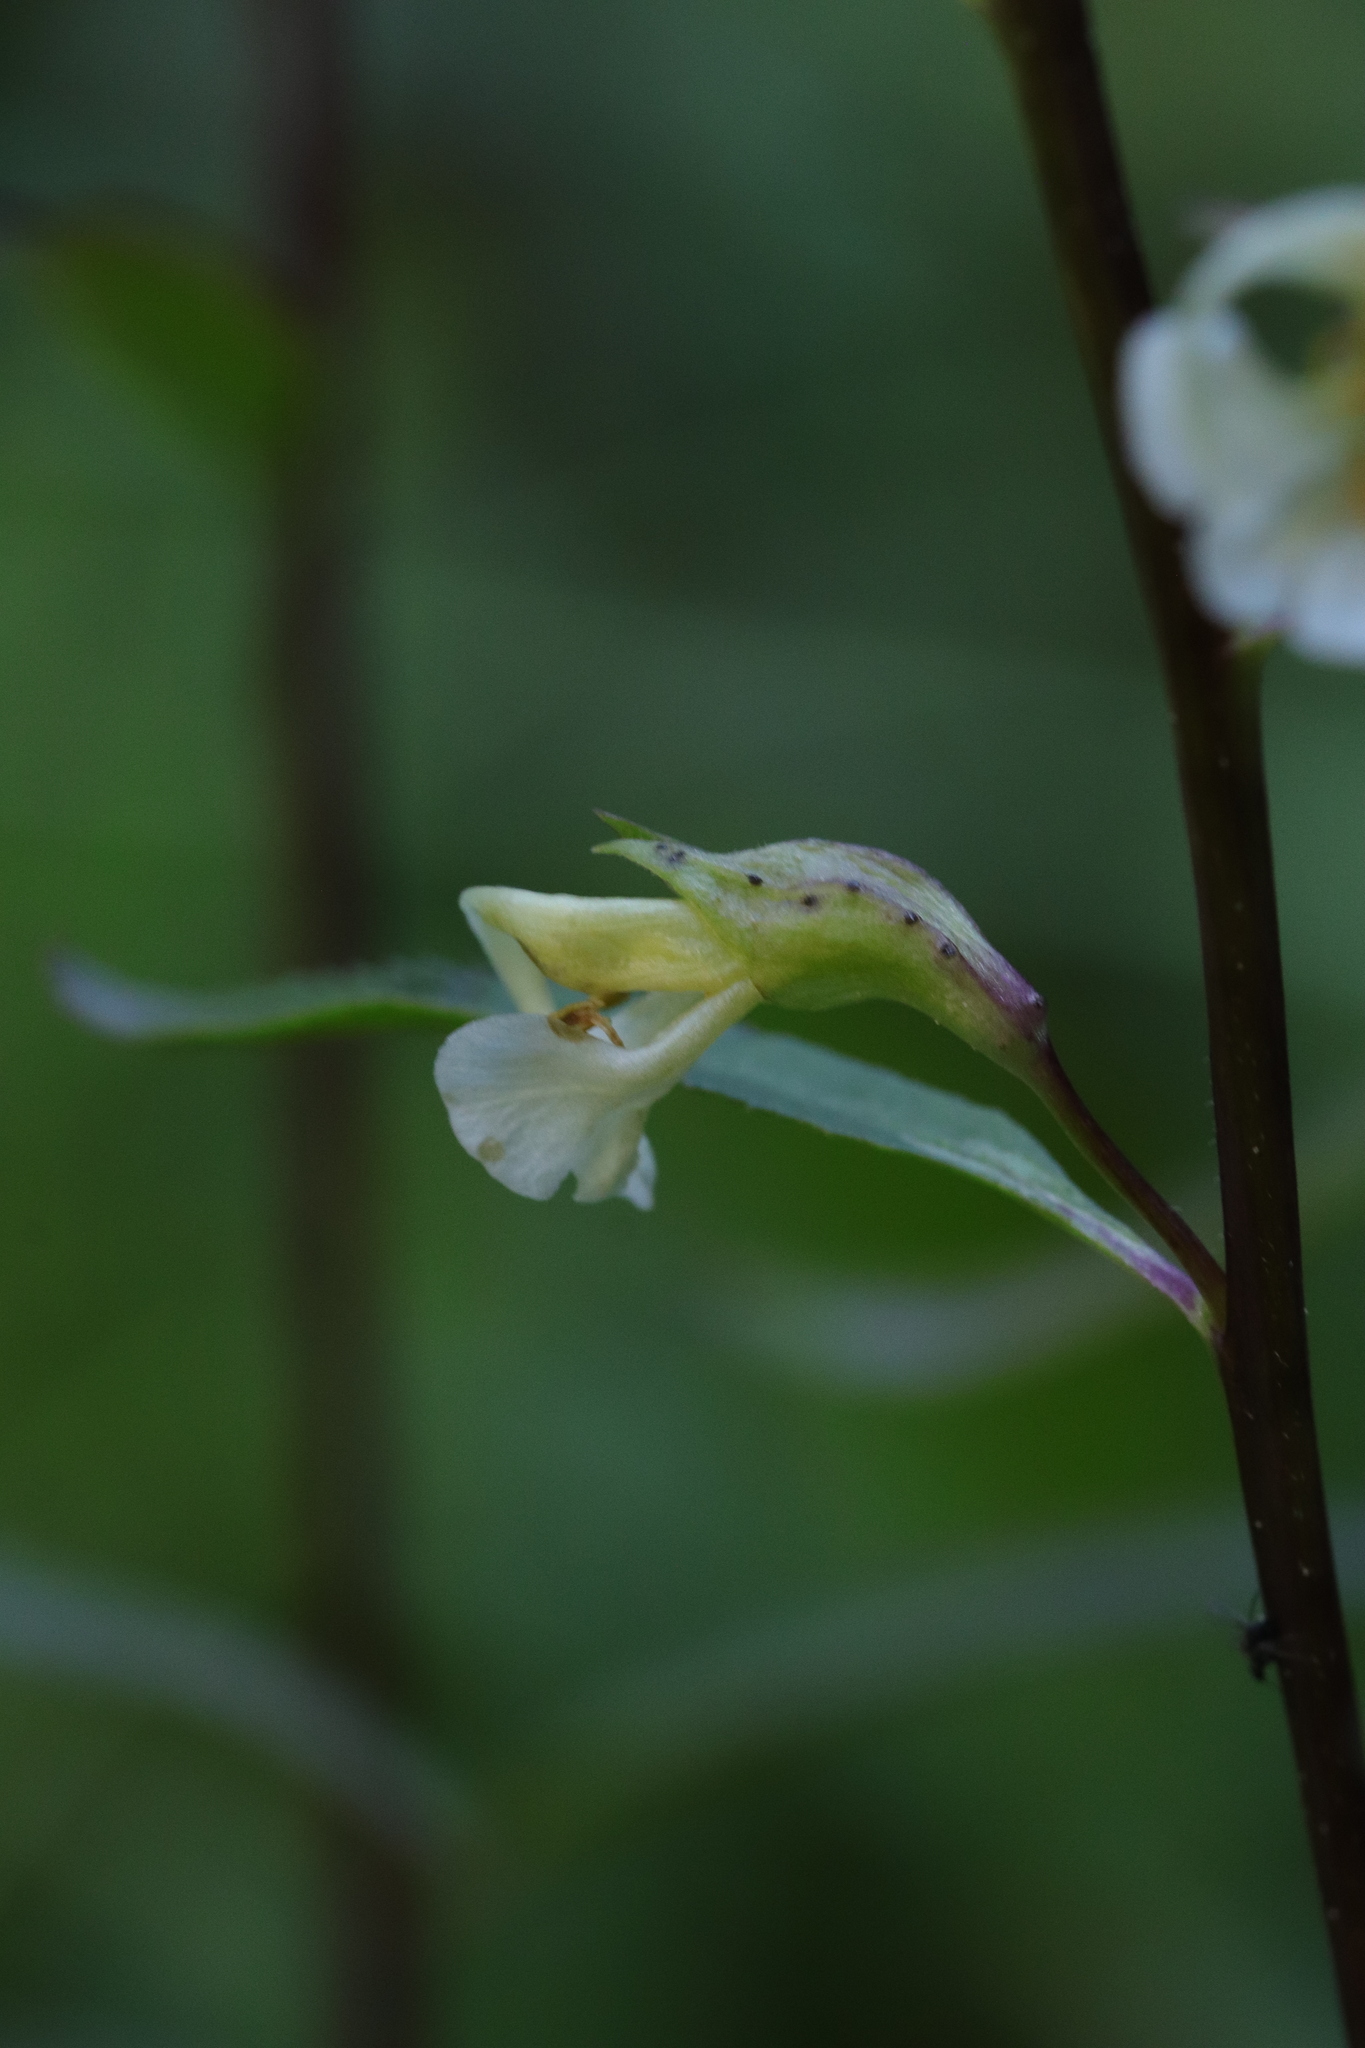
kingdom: Plantae
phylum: Tracheophyta
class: Magnoliopsida
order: Lamiales
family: Orobanchaceae
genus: Pedicularis
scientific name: Pedicularis racemosa
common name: Leafy lousewort
